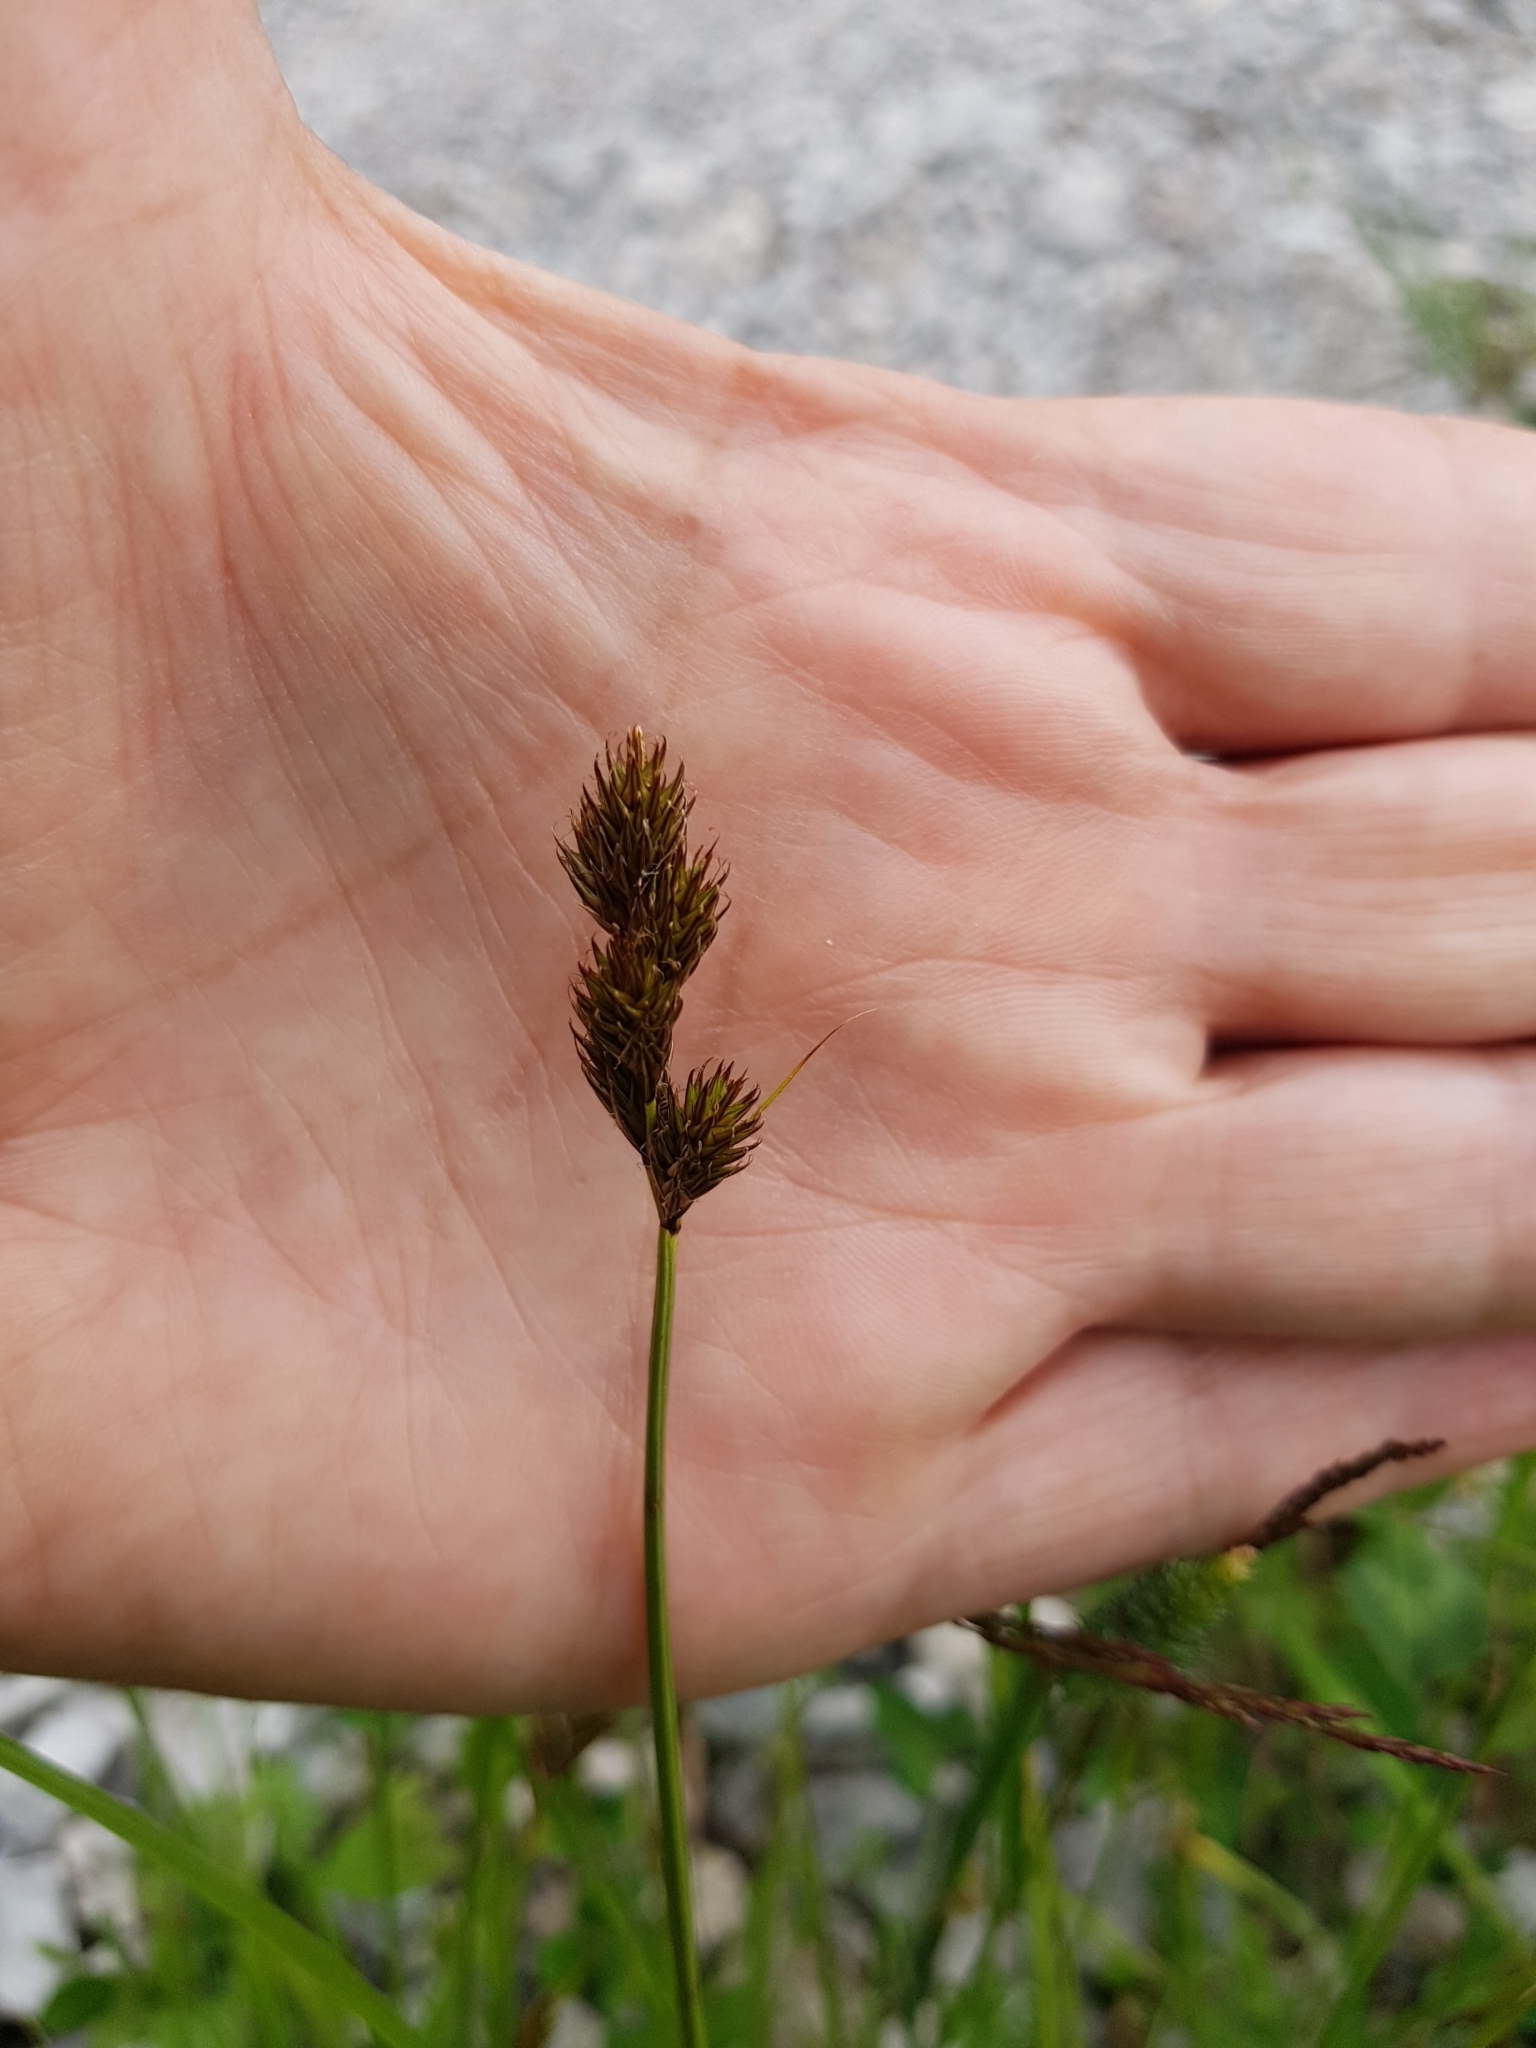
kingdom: Plantae
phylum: Tracheophyta
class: Liliopsida
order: Poales
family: Cyperaceae
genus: Carex
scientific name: Carex leporina
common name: Oval sedge
